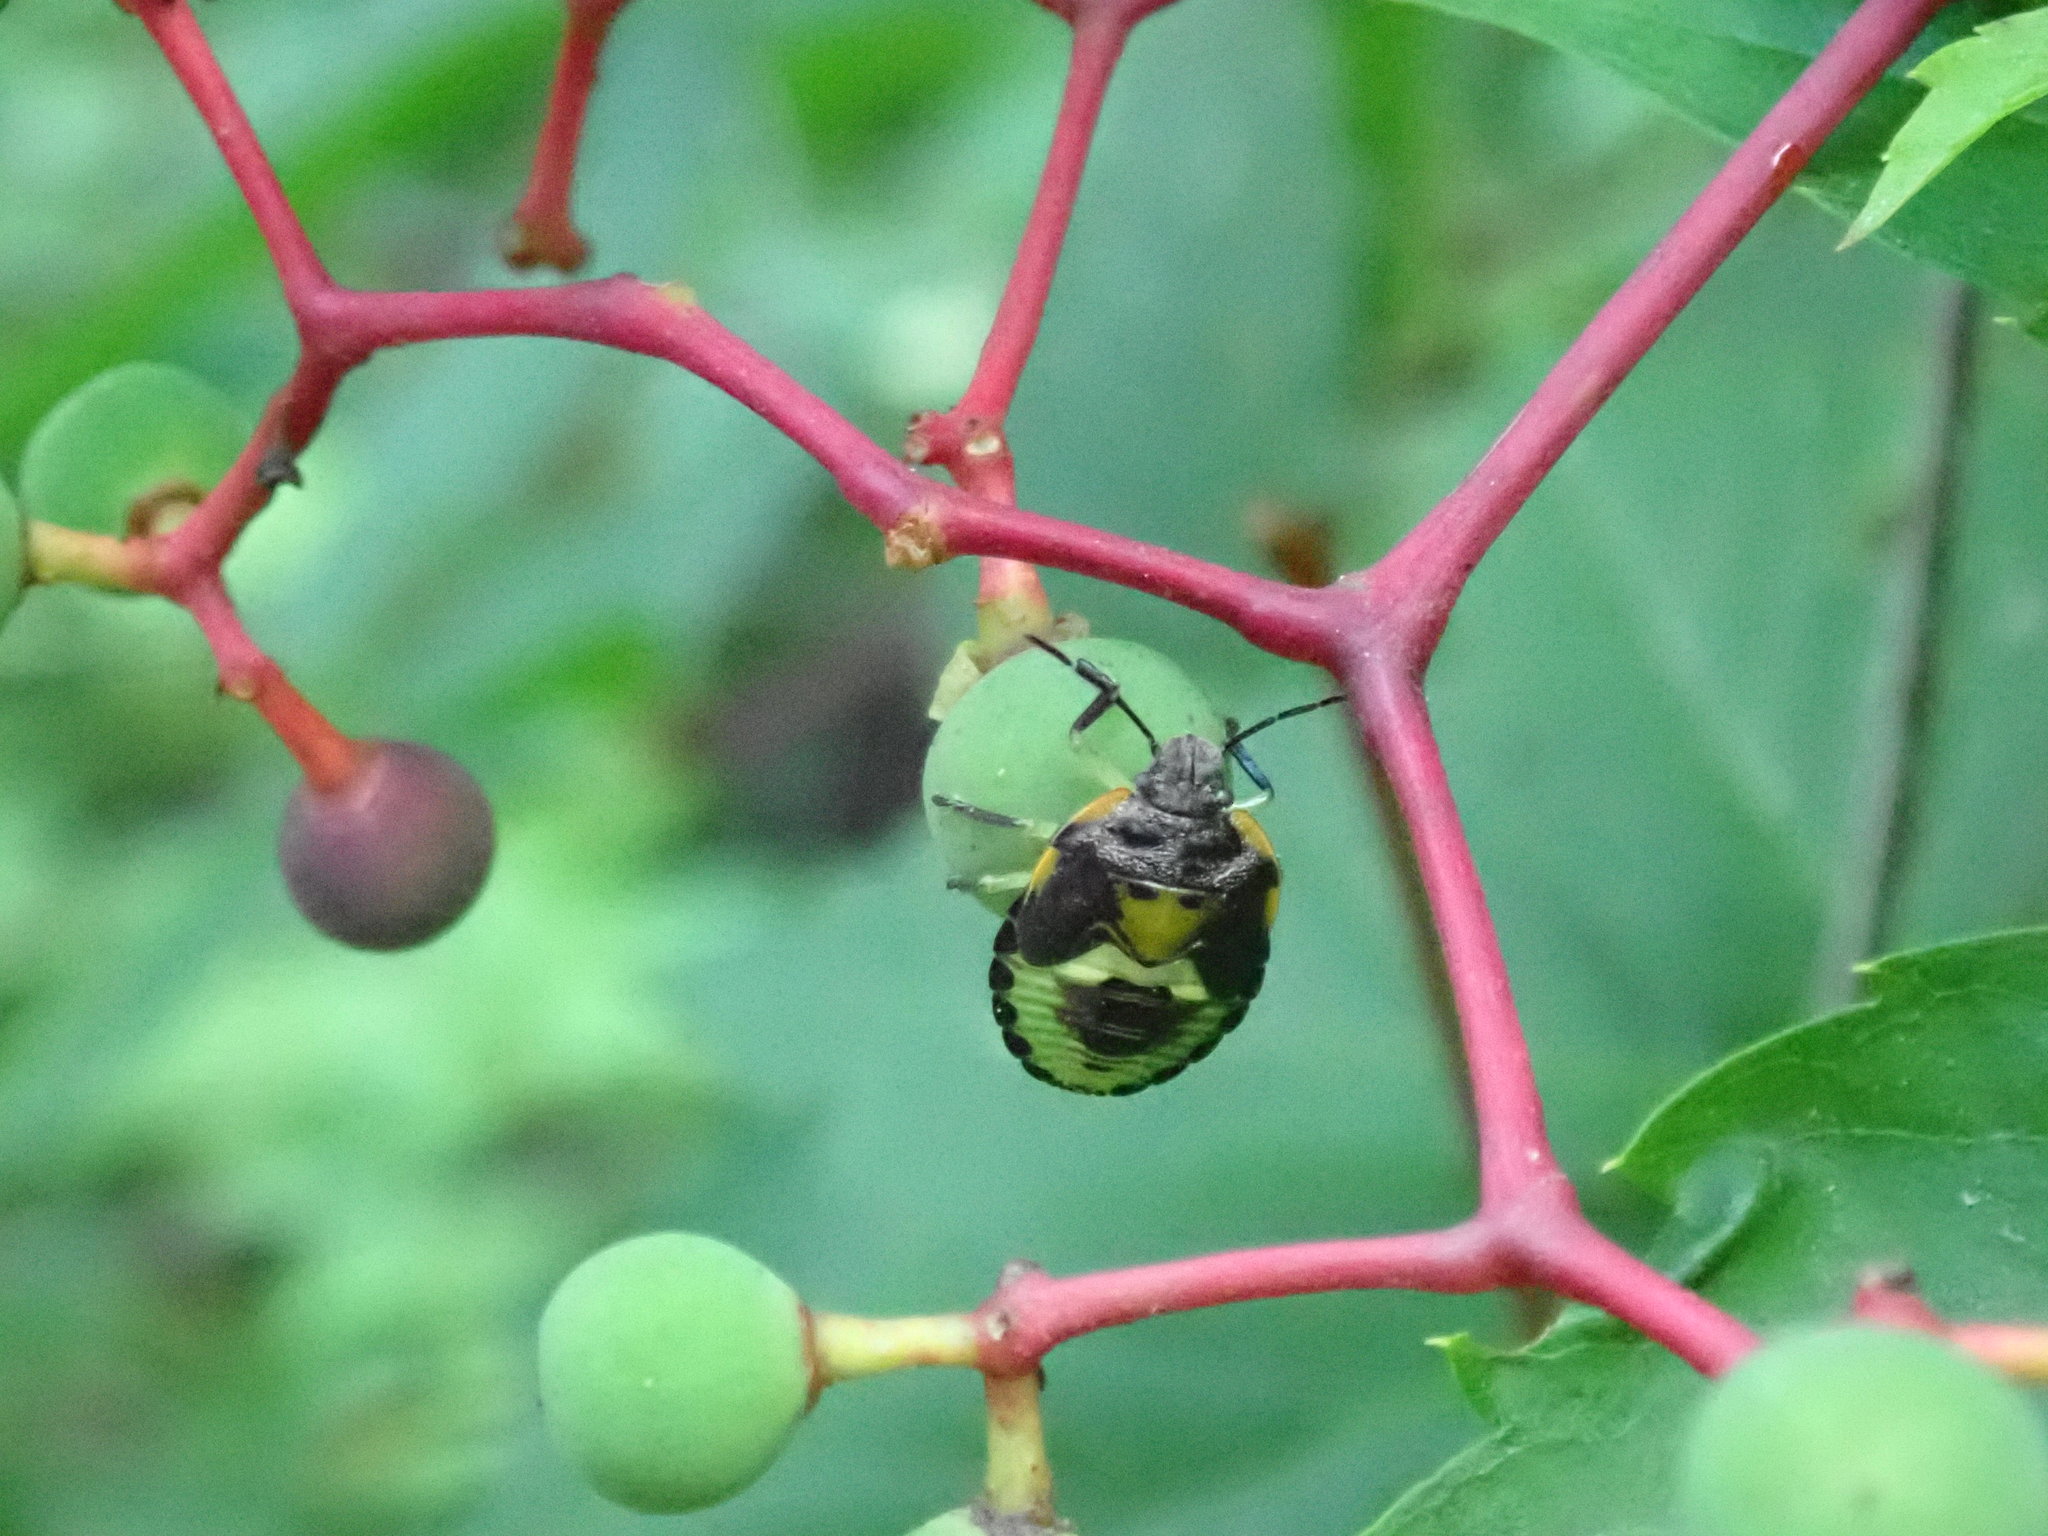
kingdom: Animalia
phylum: Arthropoda
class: Insecta
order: Hemiptera
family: Pentatomidae
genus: Chinavia
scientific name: Chinavia hilaris
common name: Green stink bug
